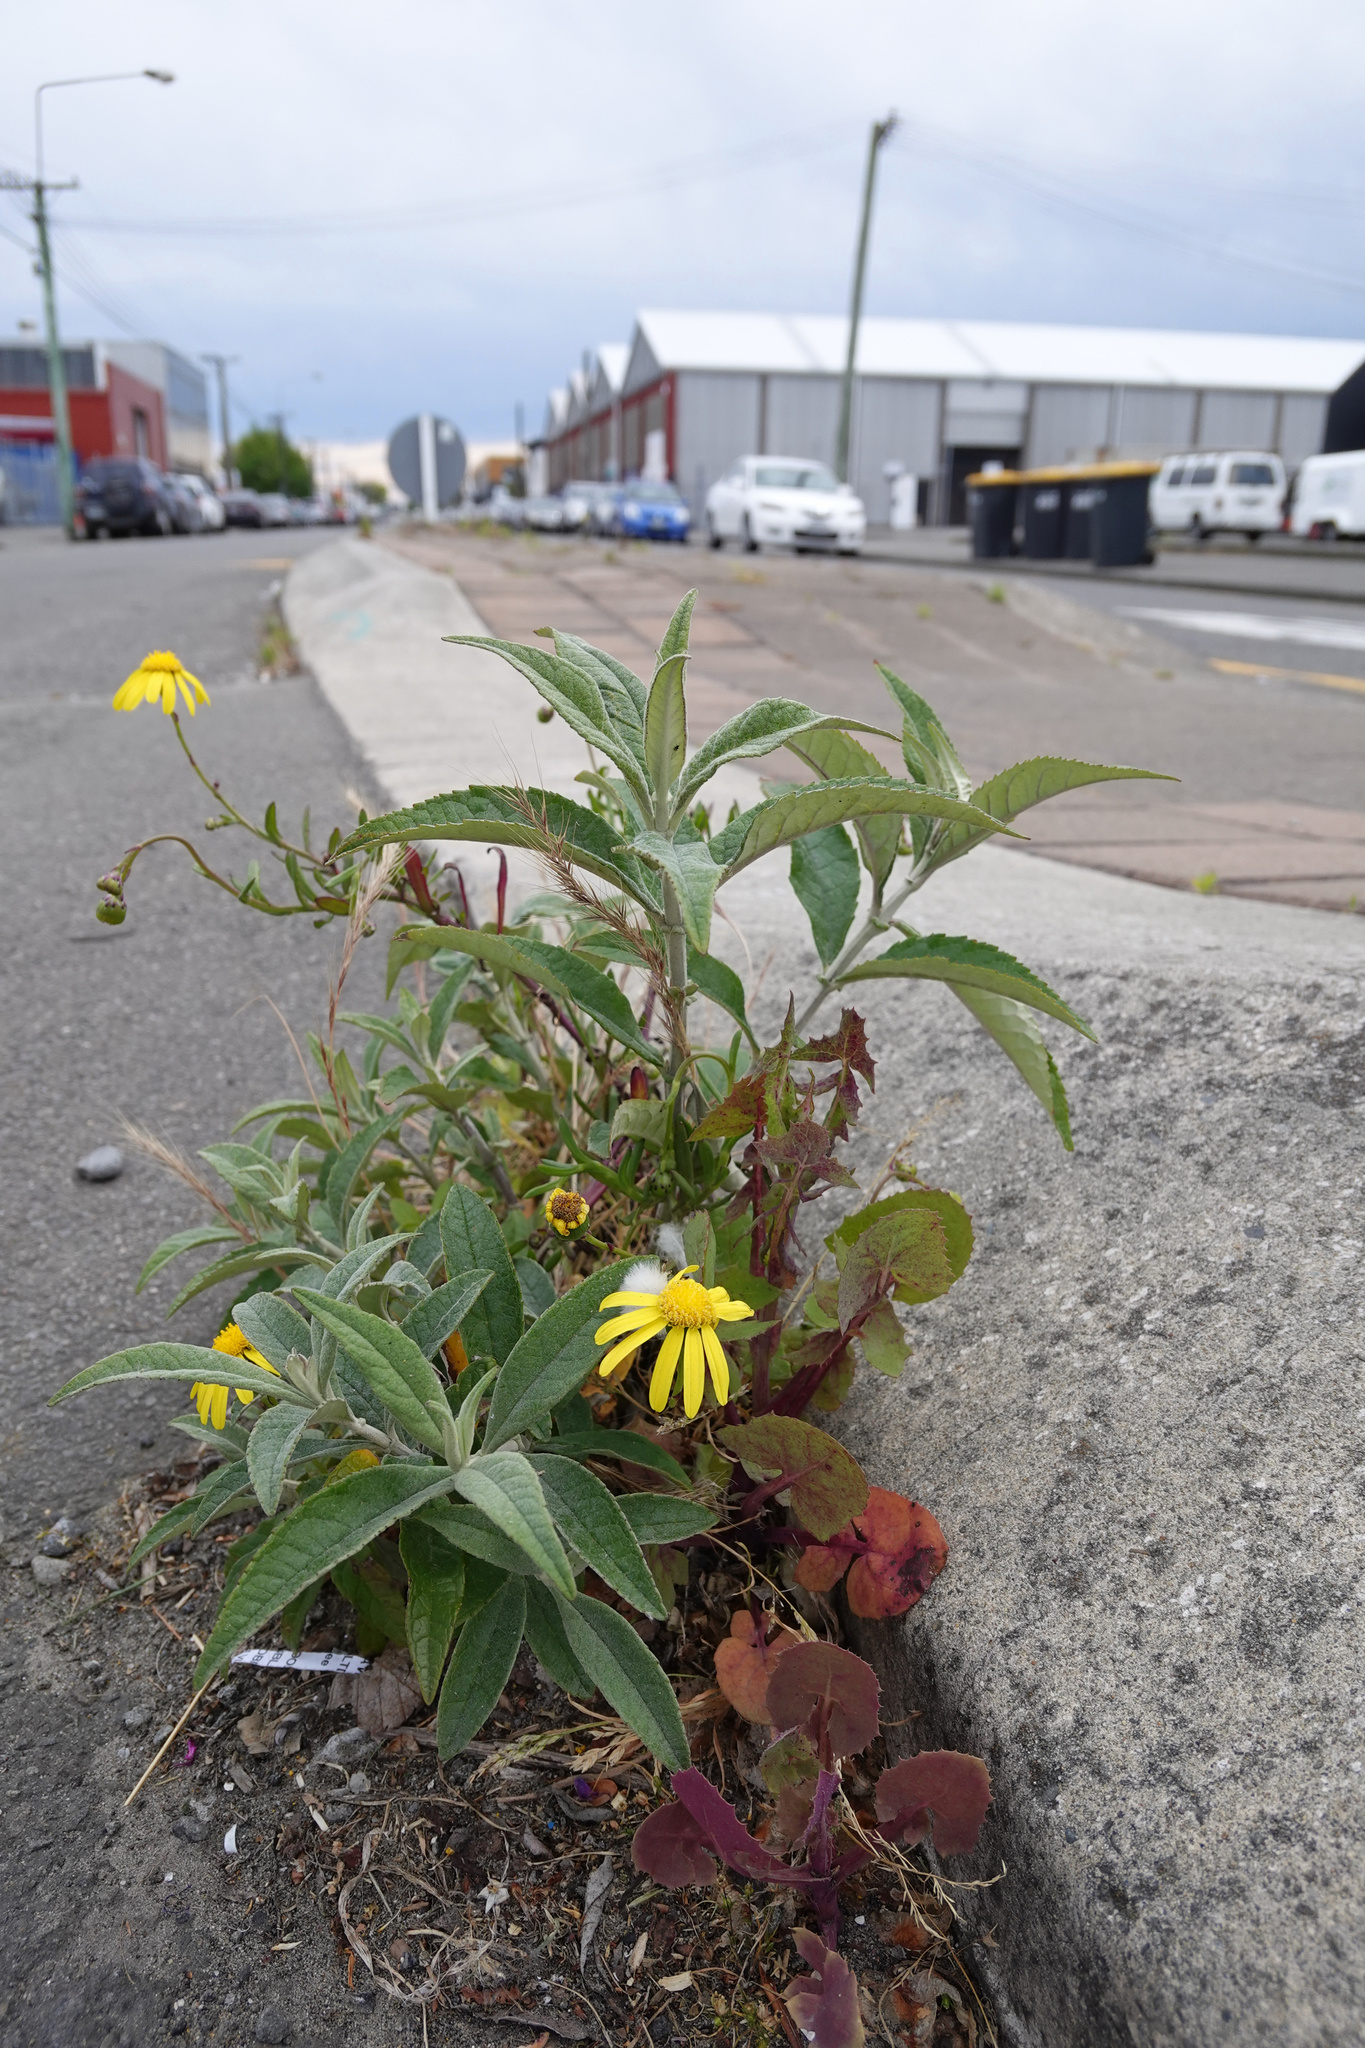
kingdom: Plantae
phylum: Tracheophyta
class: Magnoliopsida
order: Asterales
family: Asteraceae
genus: Senecio
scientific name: Senecio skirrhodon
